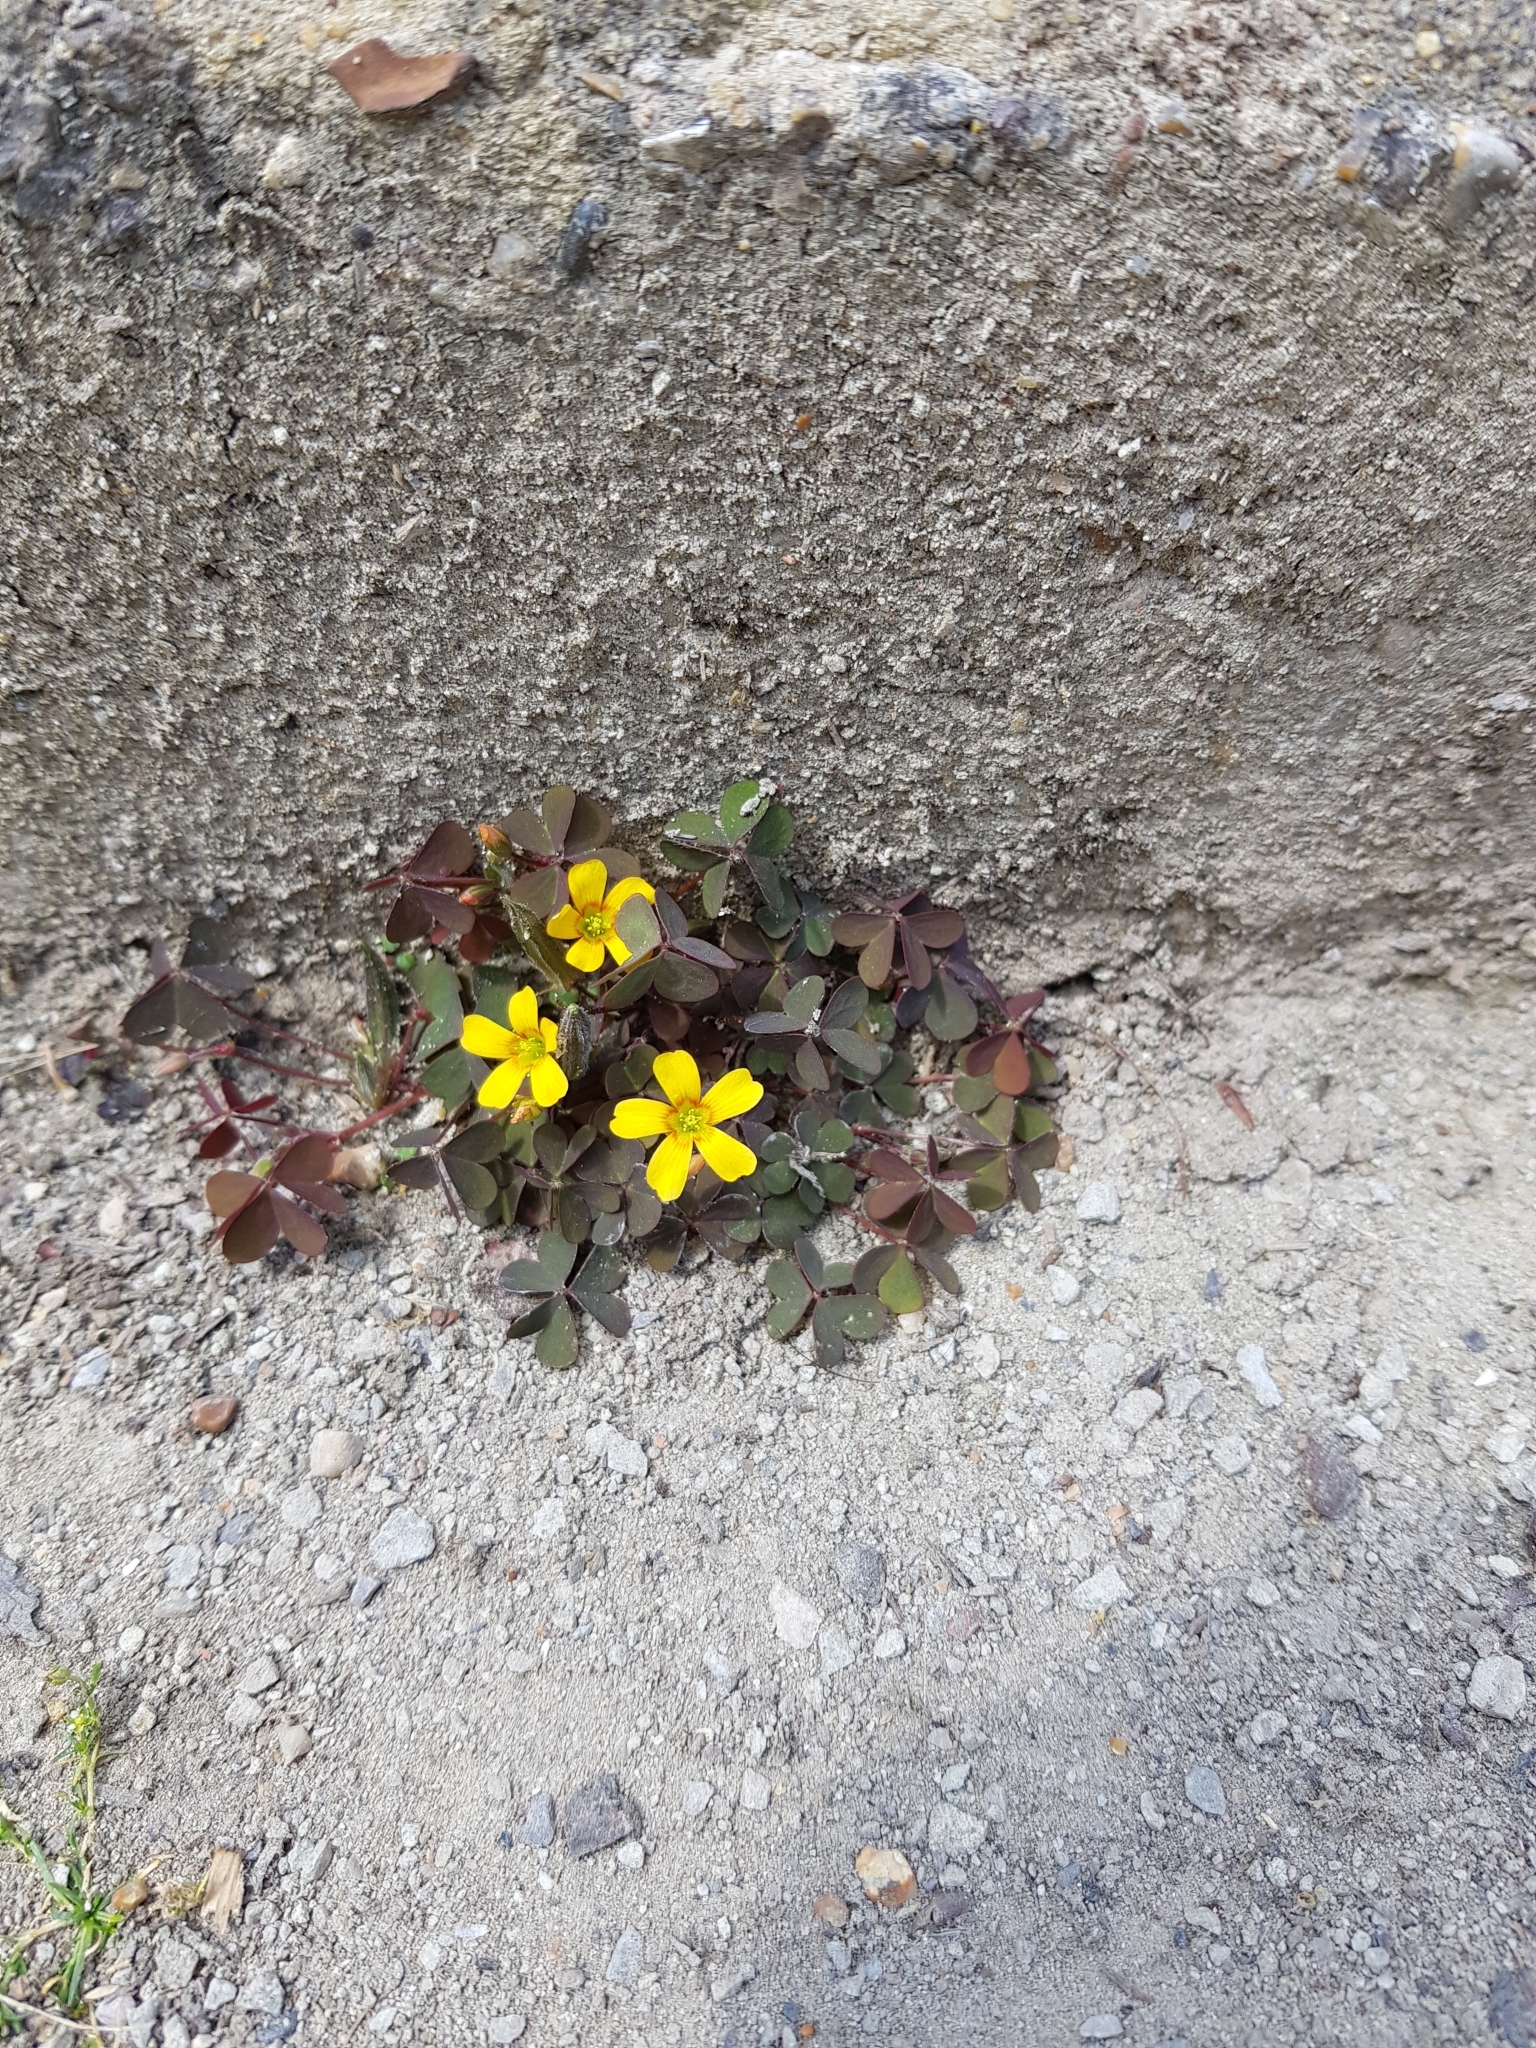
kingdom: Plantae
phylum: Tracheophyta
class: Magnoliopsida
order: Oxalidales
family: Oxalidaceae
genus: Oxalis
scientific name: Oxalis corniculata
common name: Procumbent yellow-sorrel
